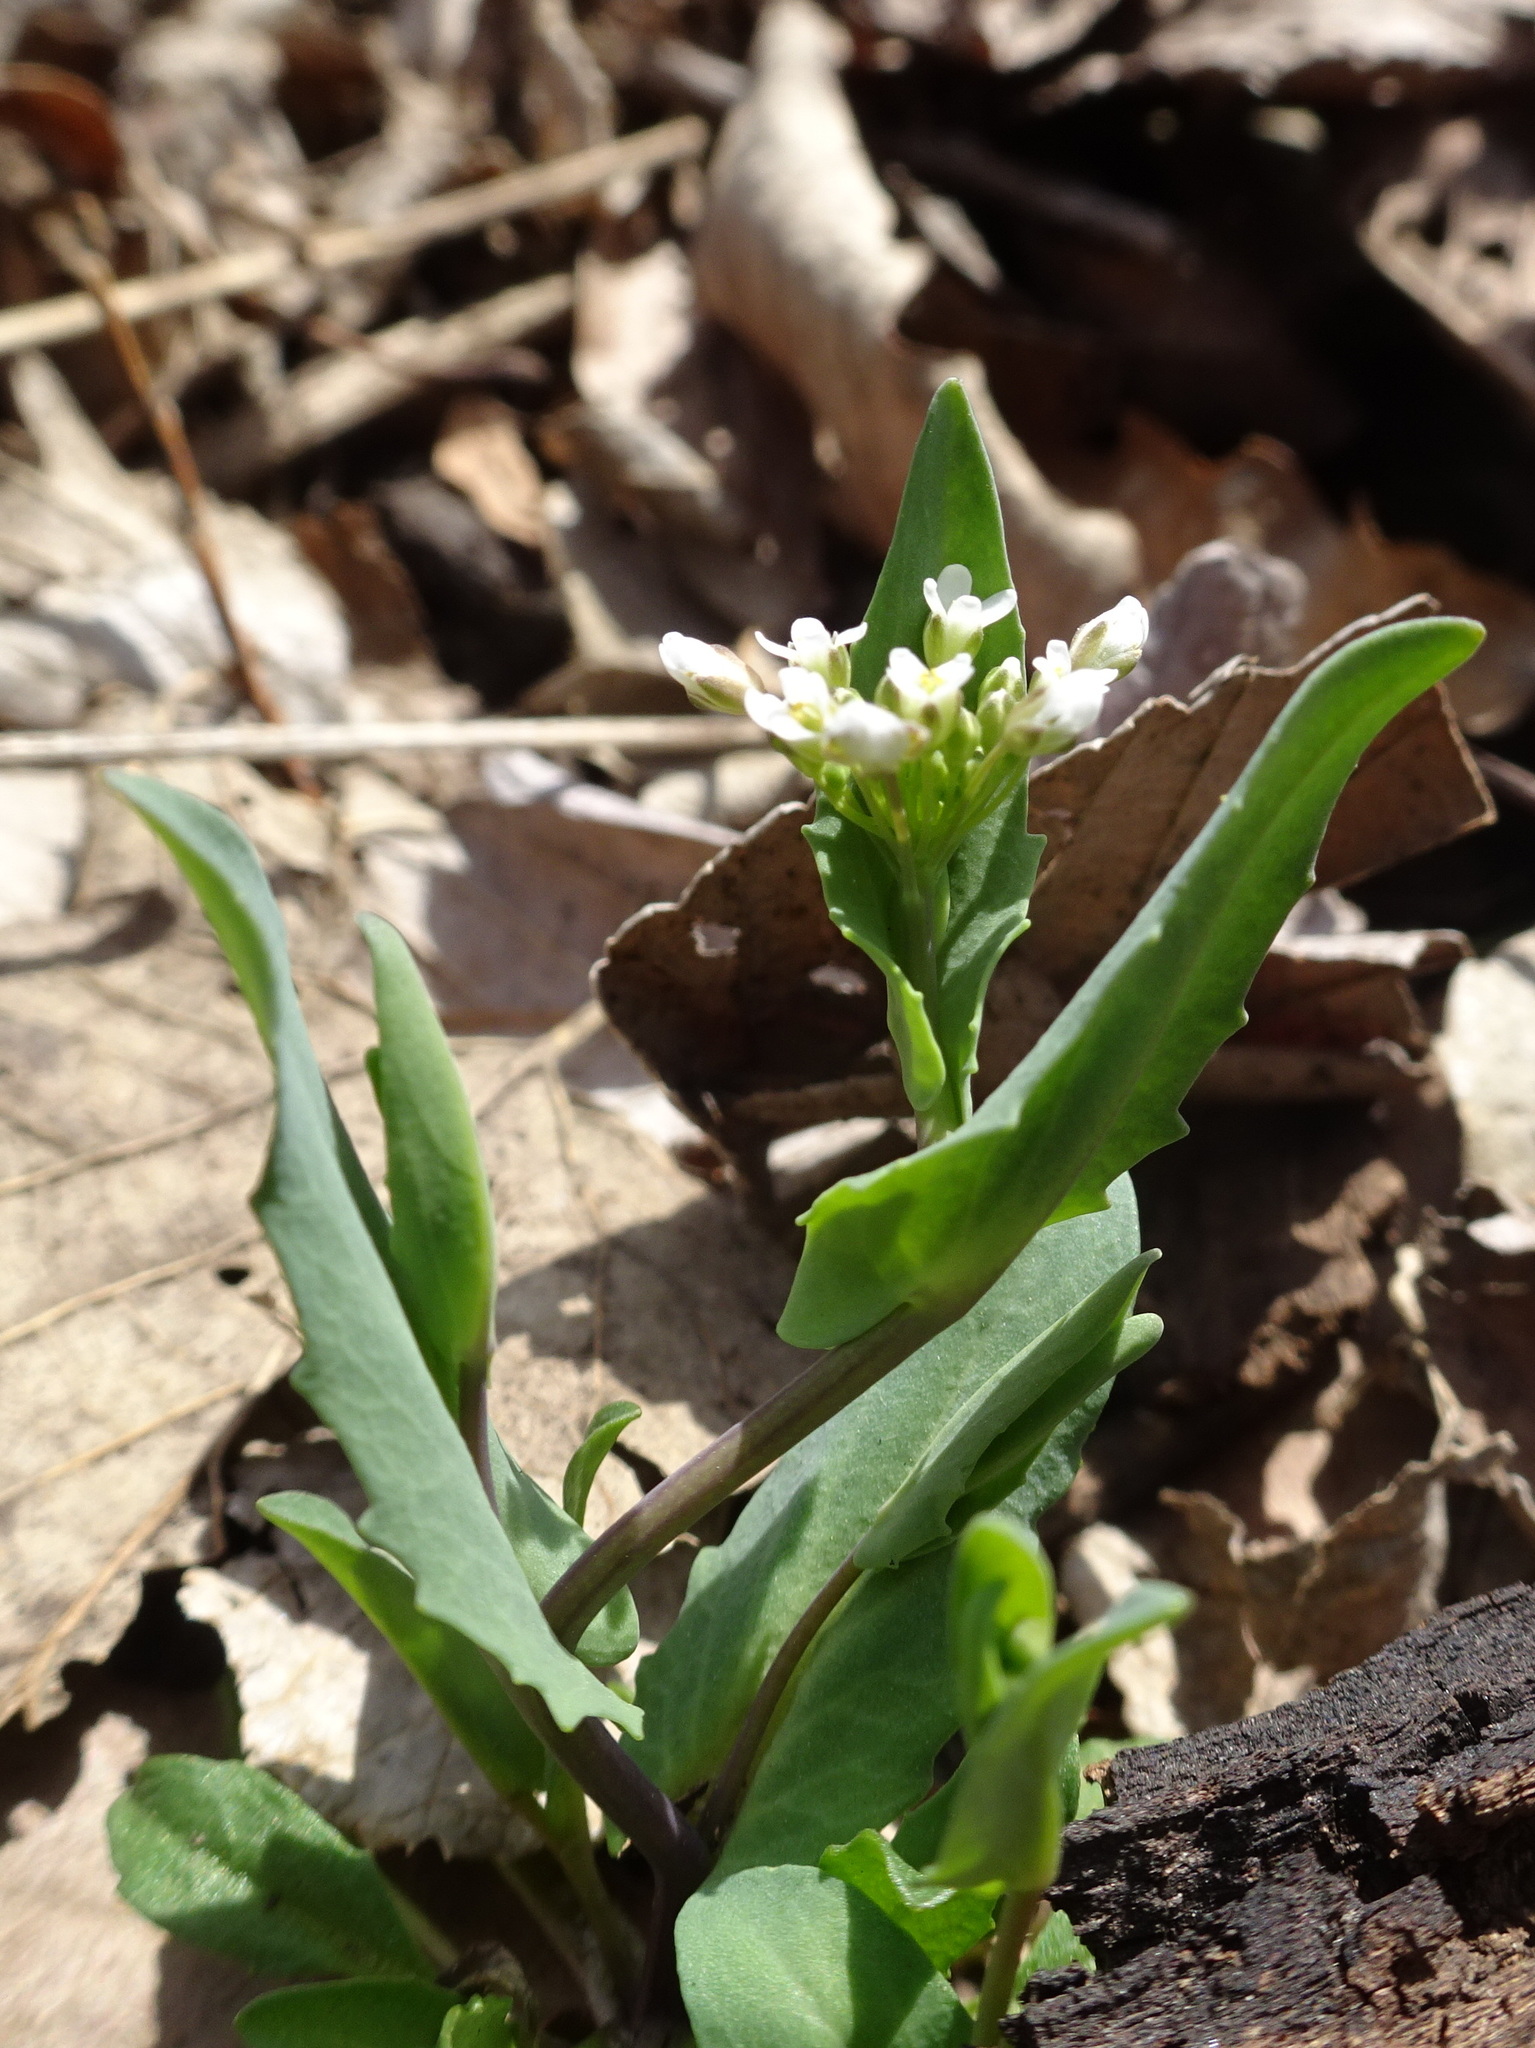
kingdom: Plantae
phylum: Tracheophyta
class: Magnoliopsida
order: Brassicales
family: Brassicaceae
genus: Noccaea
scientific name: Noccaea perfoliata
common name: Perfoliate pennycress
